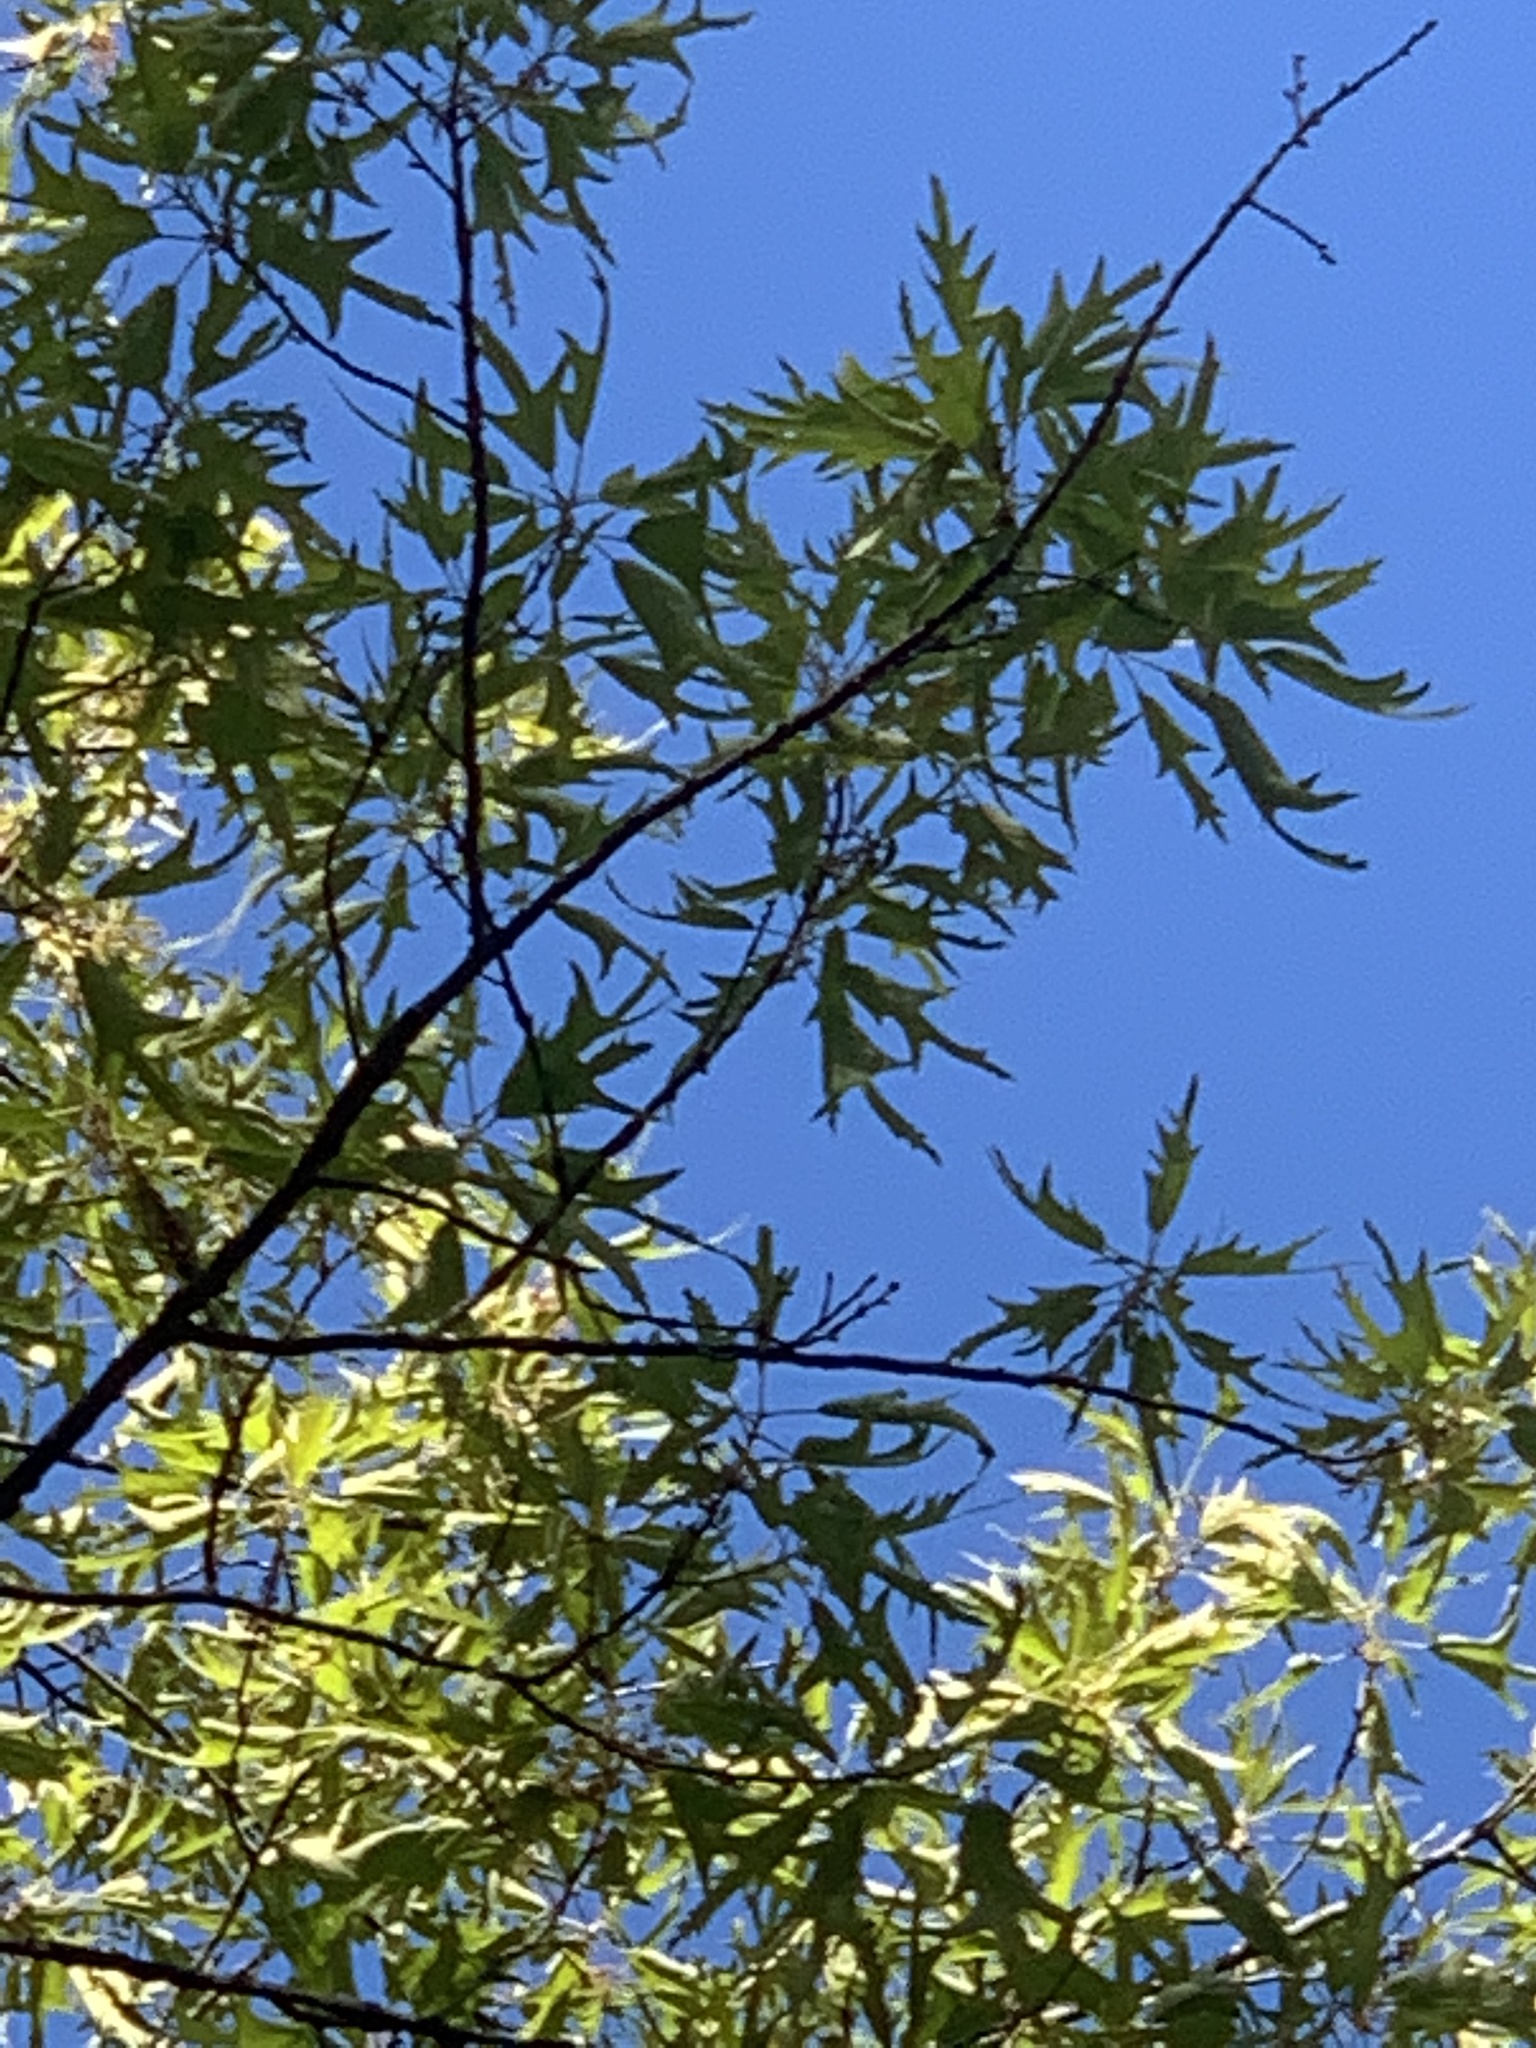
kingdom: Plantae
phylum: Tracheophyta
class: Magnoliopsida
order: Fagales
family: Fagaceae
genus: Quercus
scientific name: Quercus falcata
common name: Southern red oak
